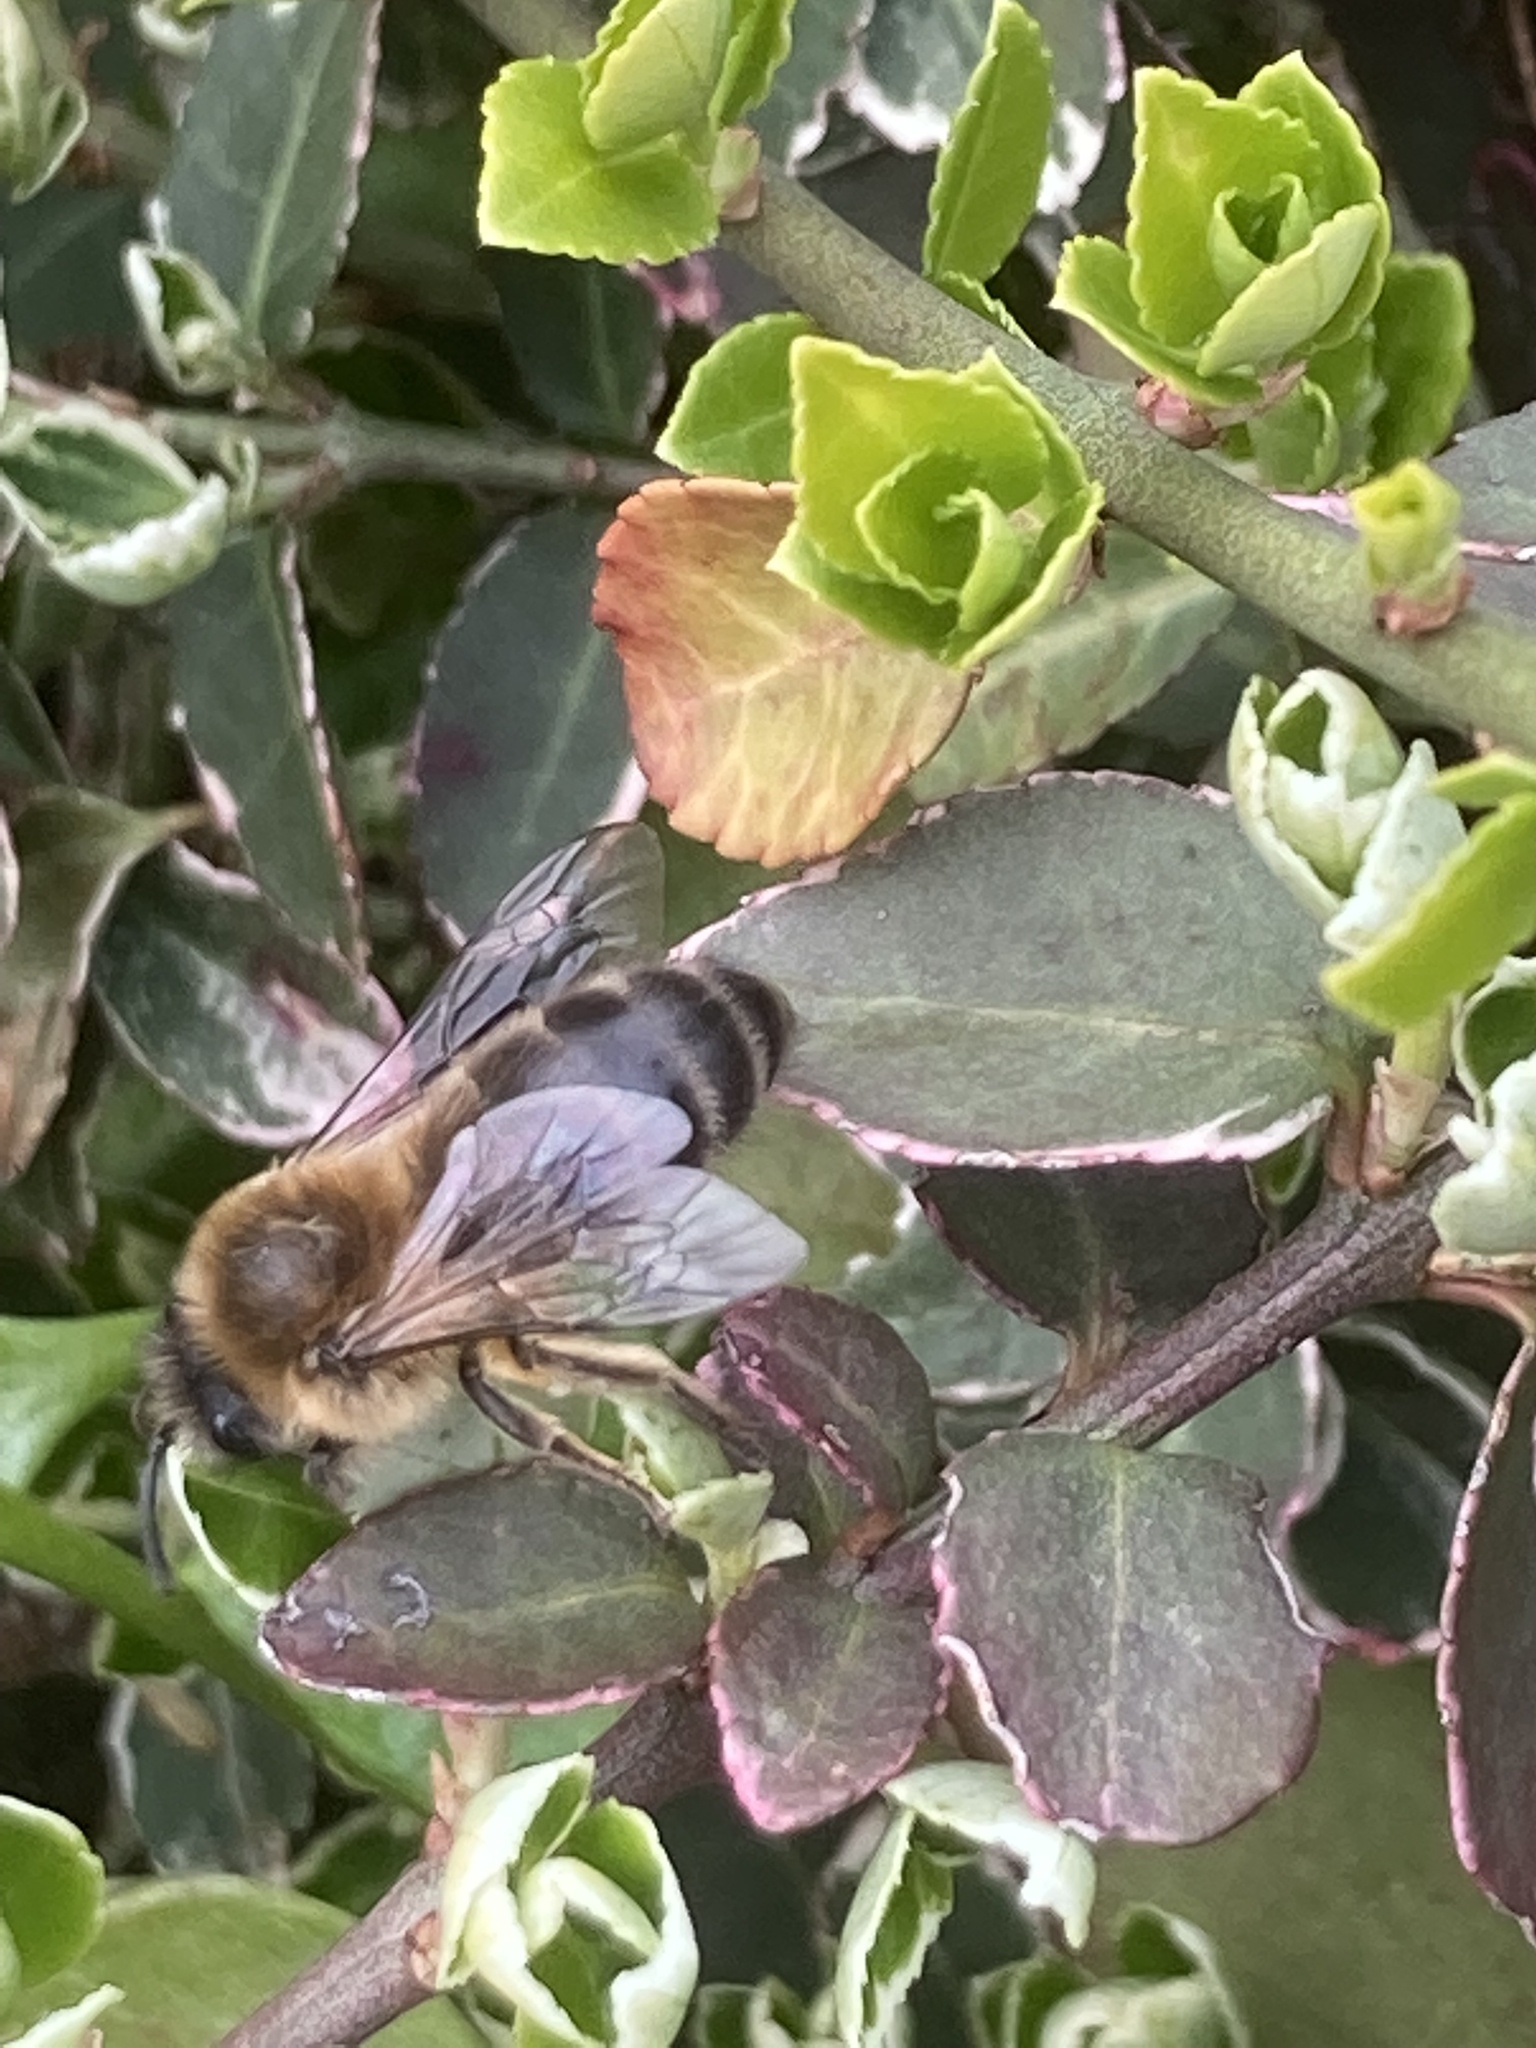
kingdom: Animalia
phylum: Arthropoda
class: Insecta
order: Hymenoptera
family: Colletidae
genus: Colletes
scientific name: Colletes cunicularius
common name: Early colletes
